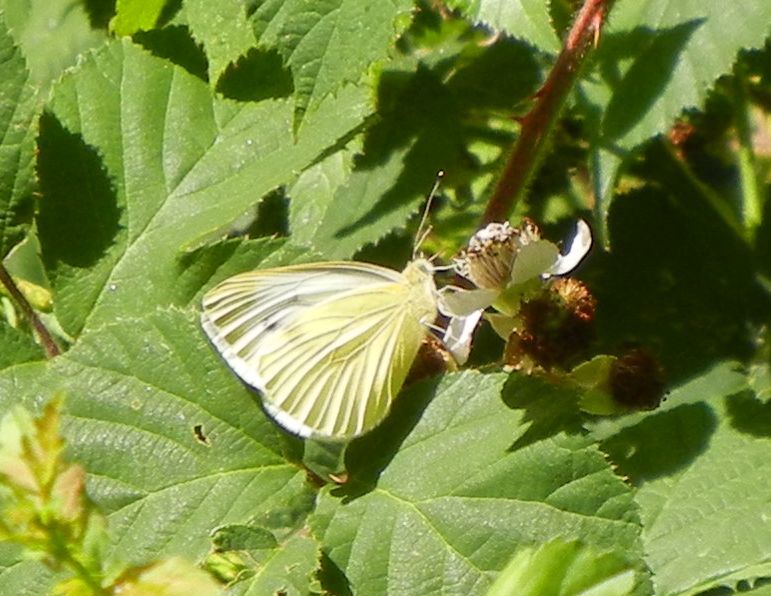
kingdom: Animalia
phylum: Arthropoda
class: Insecta
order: Lepidoptera
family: Pieridae
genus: Pieris
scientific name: Pieris napi
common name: Green-veined white
